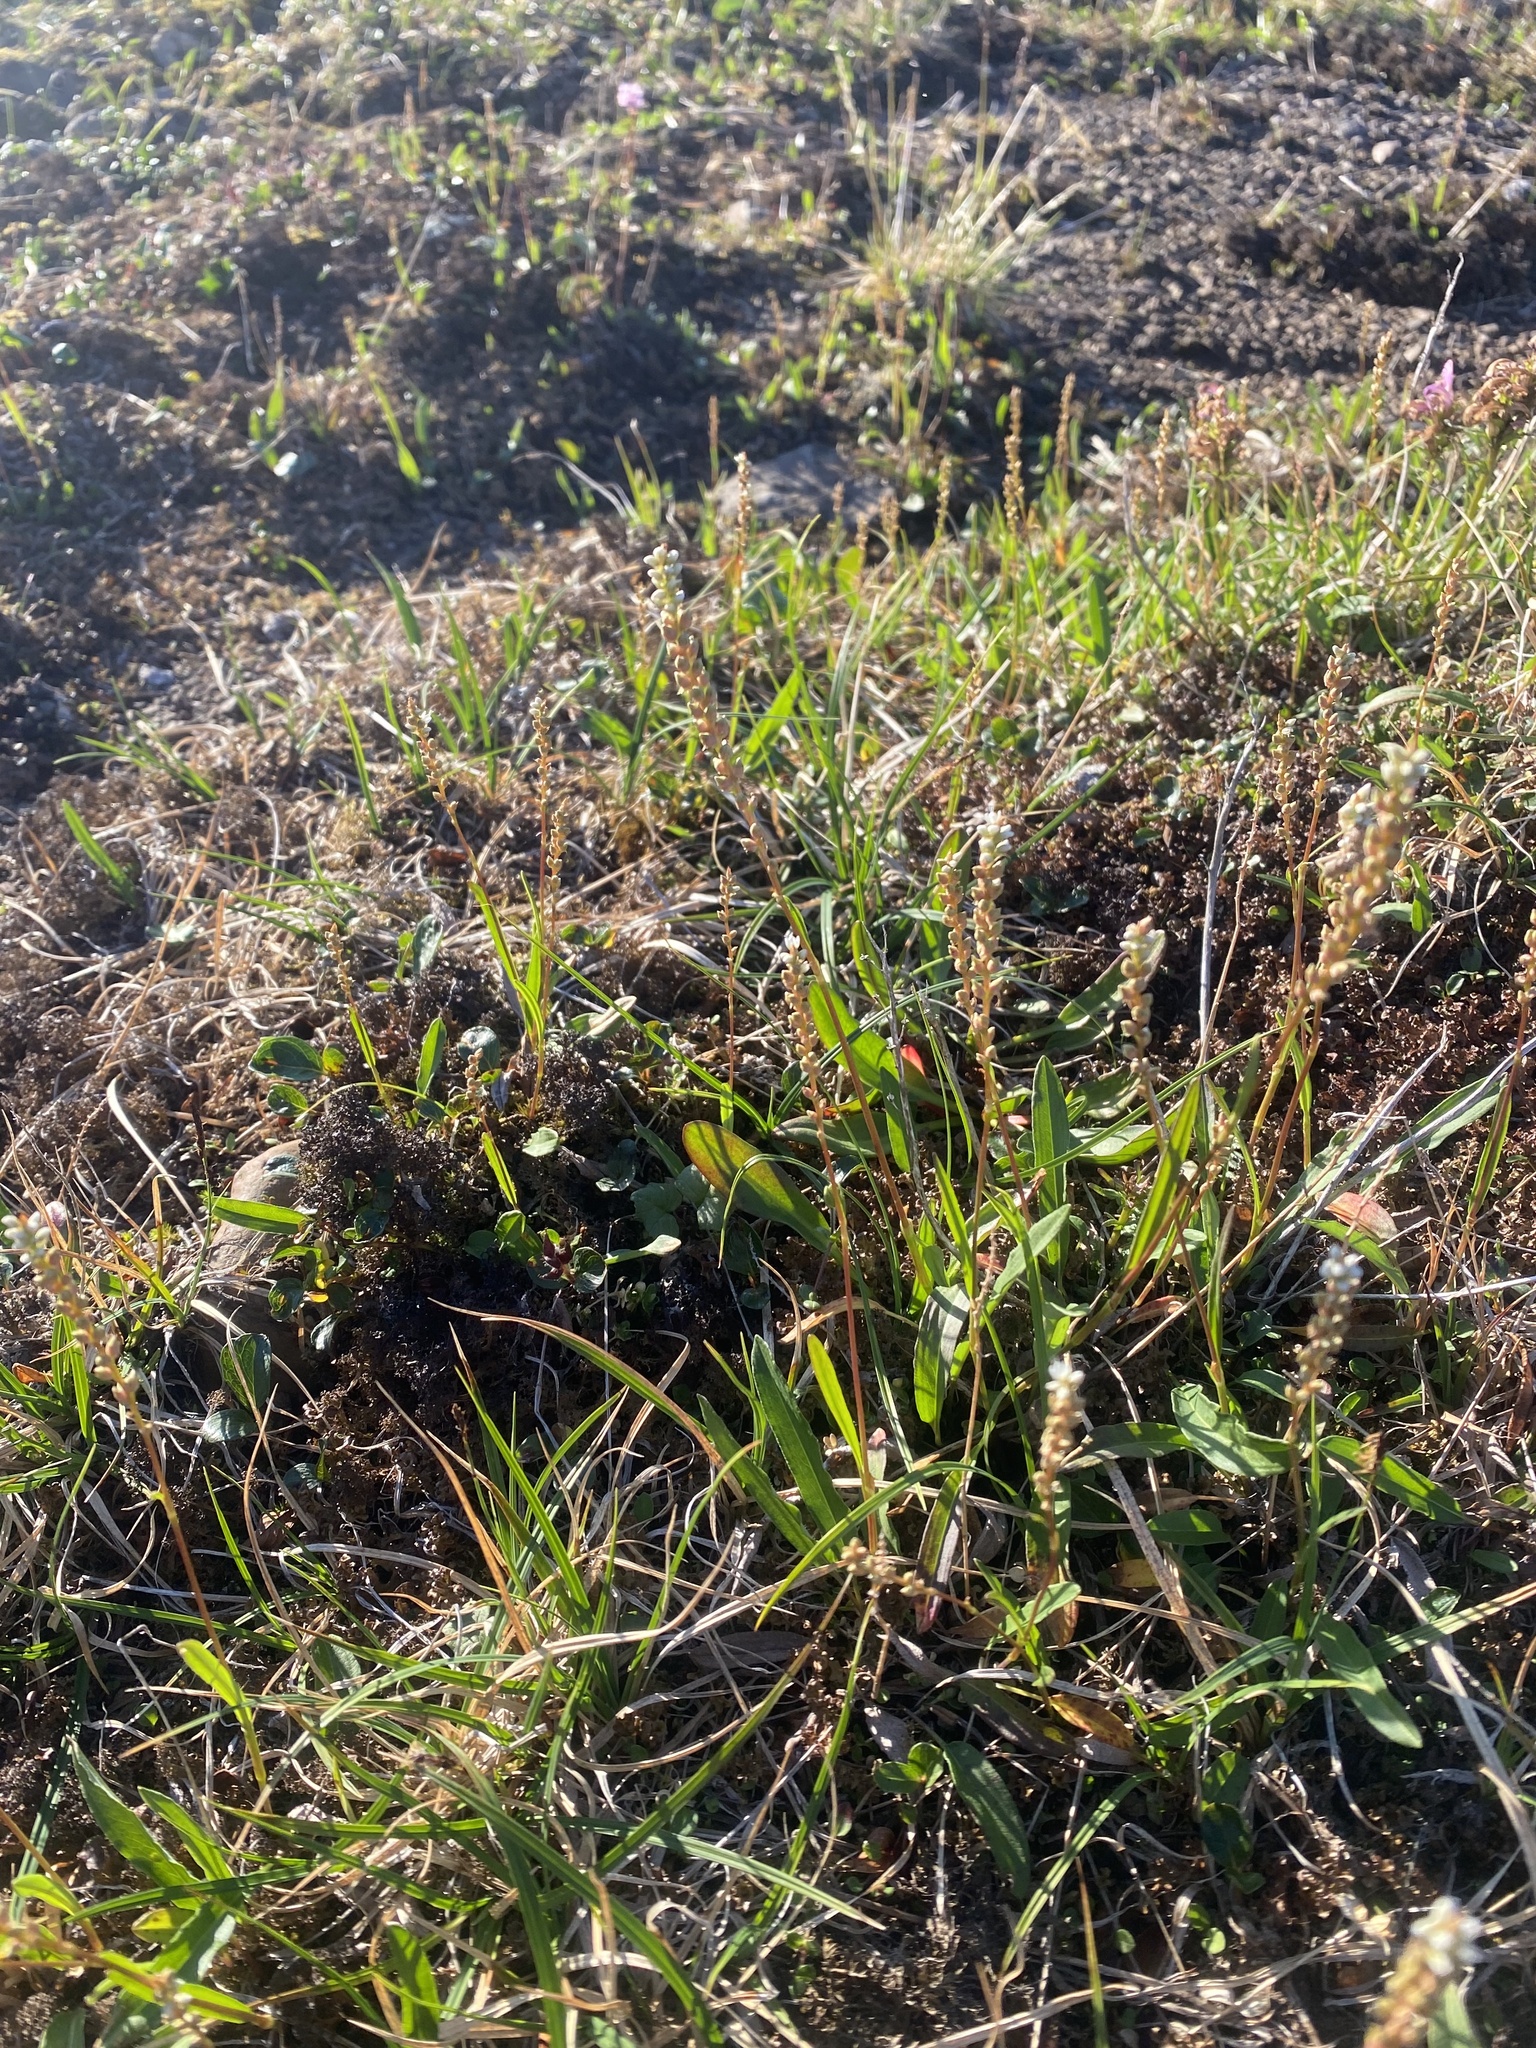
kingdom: Plantae
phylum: Tracheophyta
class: Magnoliopsida
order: Caryophyllales
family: Polygonaceae
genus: Bistorta
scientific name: Bistorta vivipara
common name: Alpine bistort
